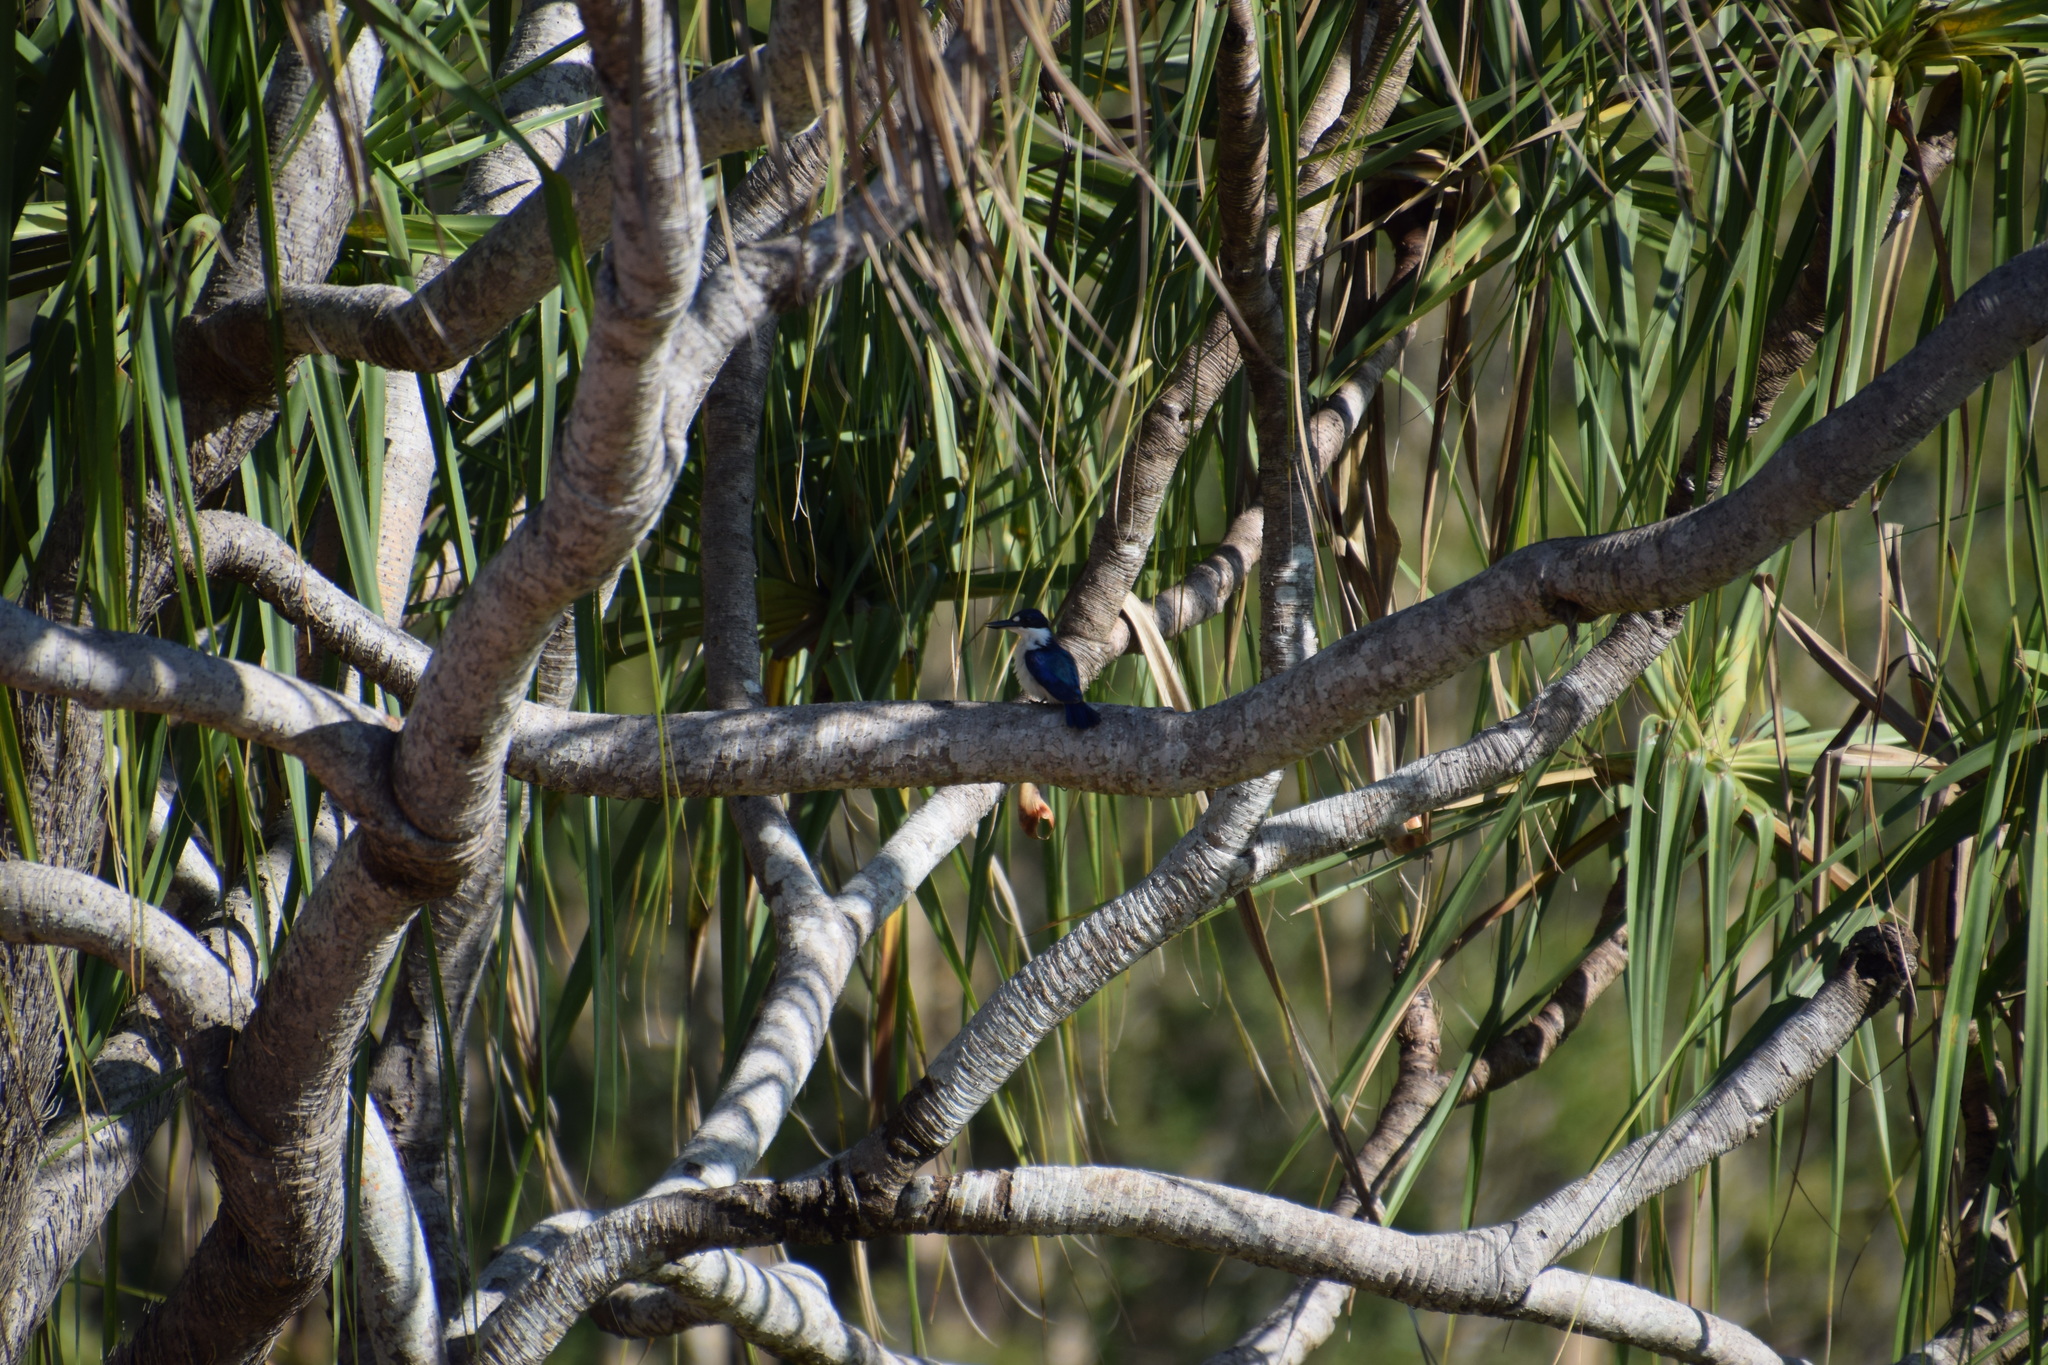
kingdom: Animalia
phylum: Chordata
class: Aves
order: Coraciiformes
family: Alcedinidae
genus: Todiramphus
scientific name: Todiramphus macleayii
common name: Forest kingfisher
